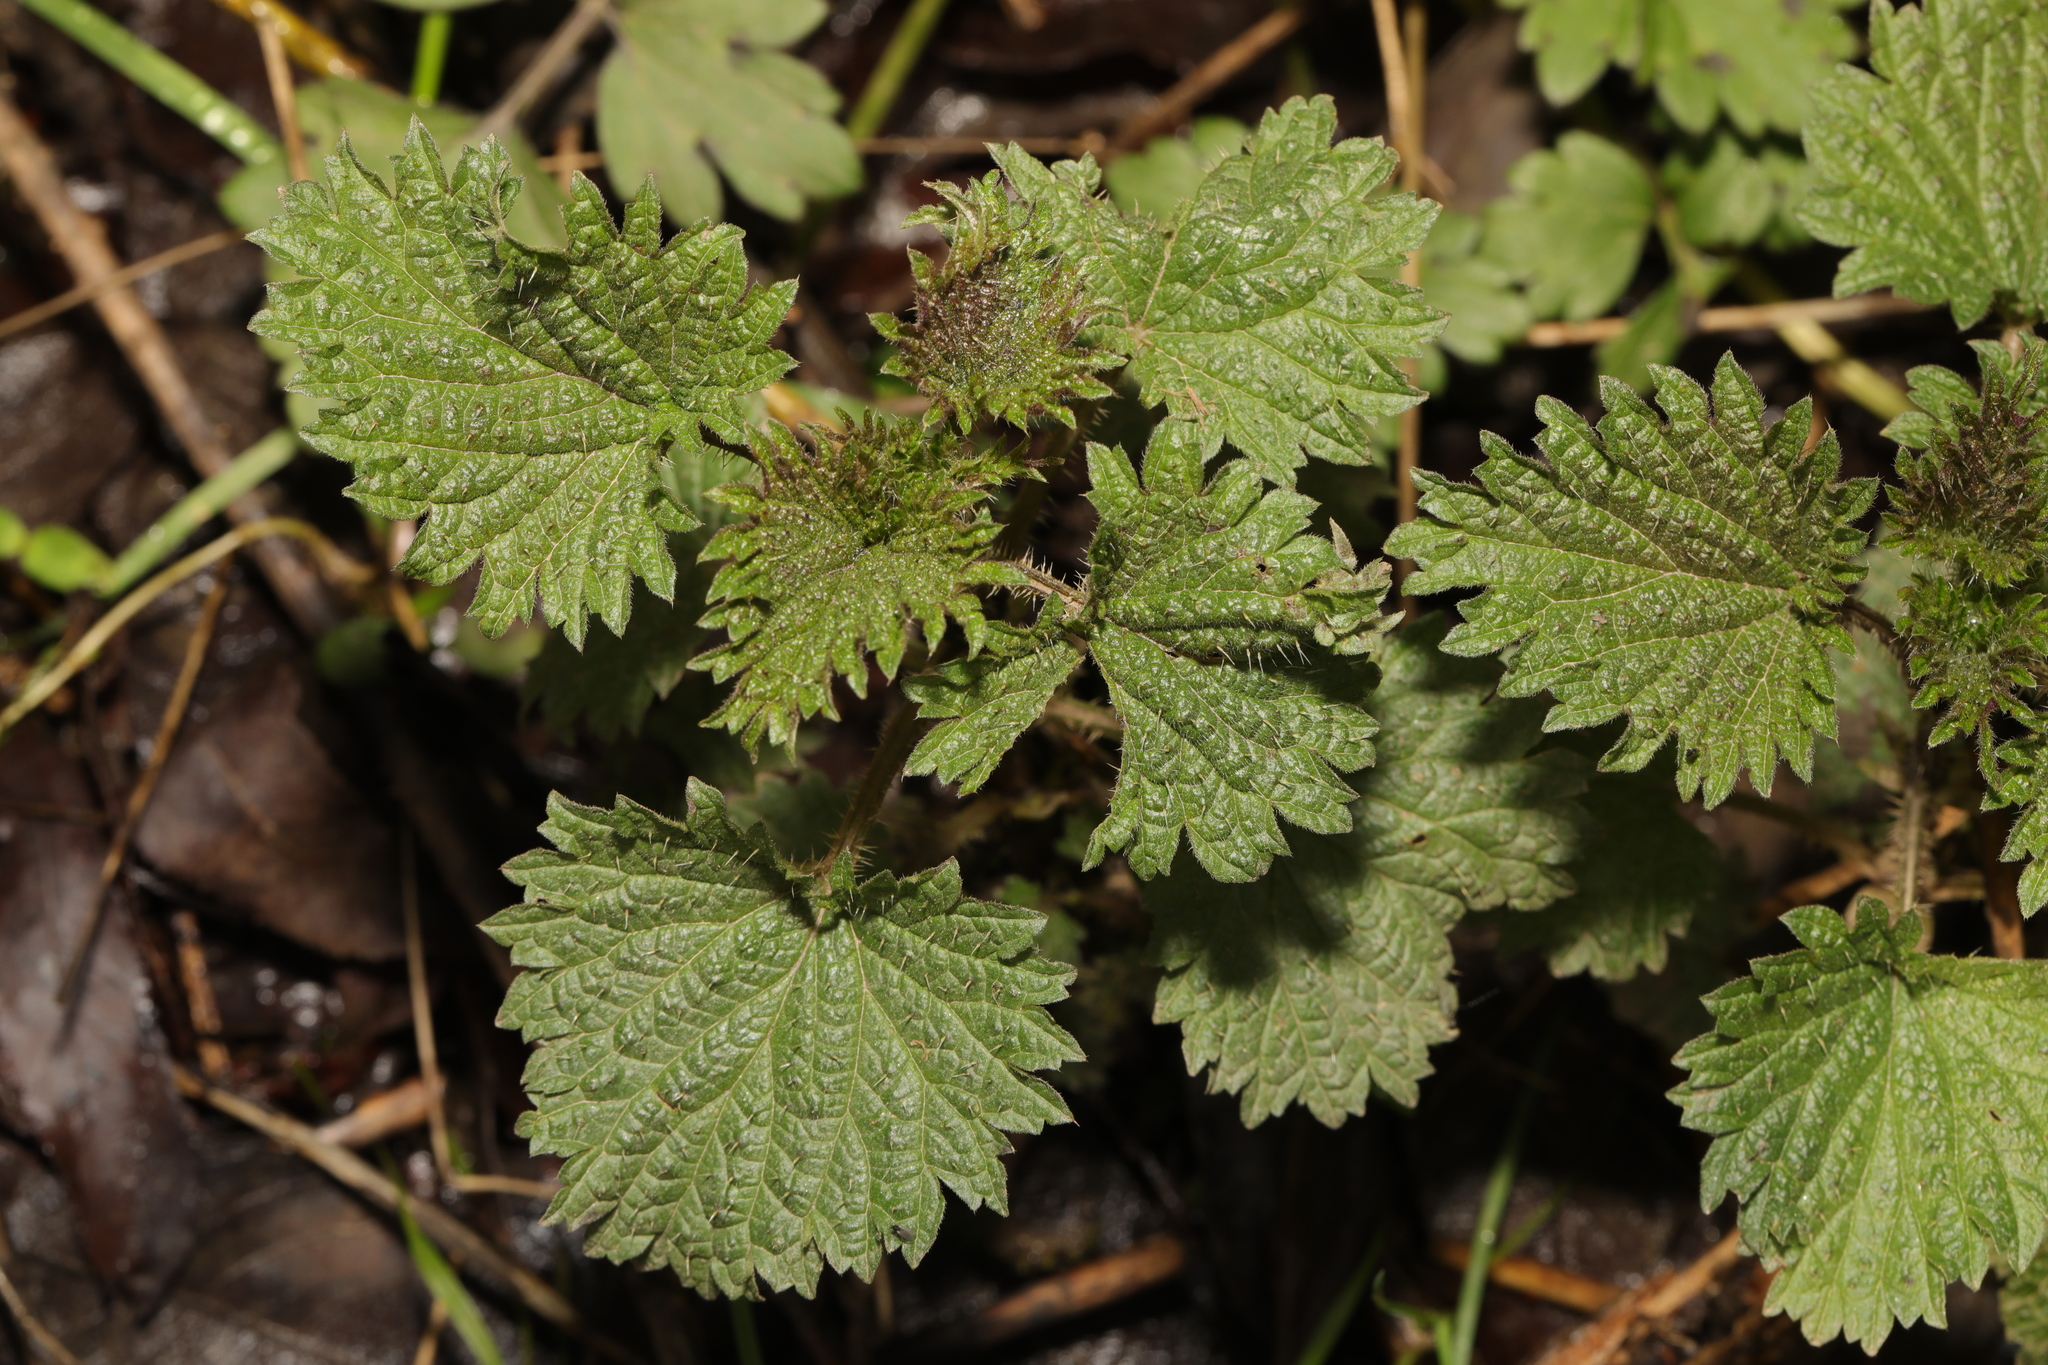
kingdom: Plantae
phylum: Tracheophyta
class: Magnoliopsida
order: Rosales
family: Urticaceae
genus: Urtica
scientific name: Urtica dioica
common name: Common nettle
